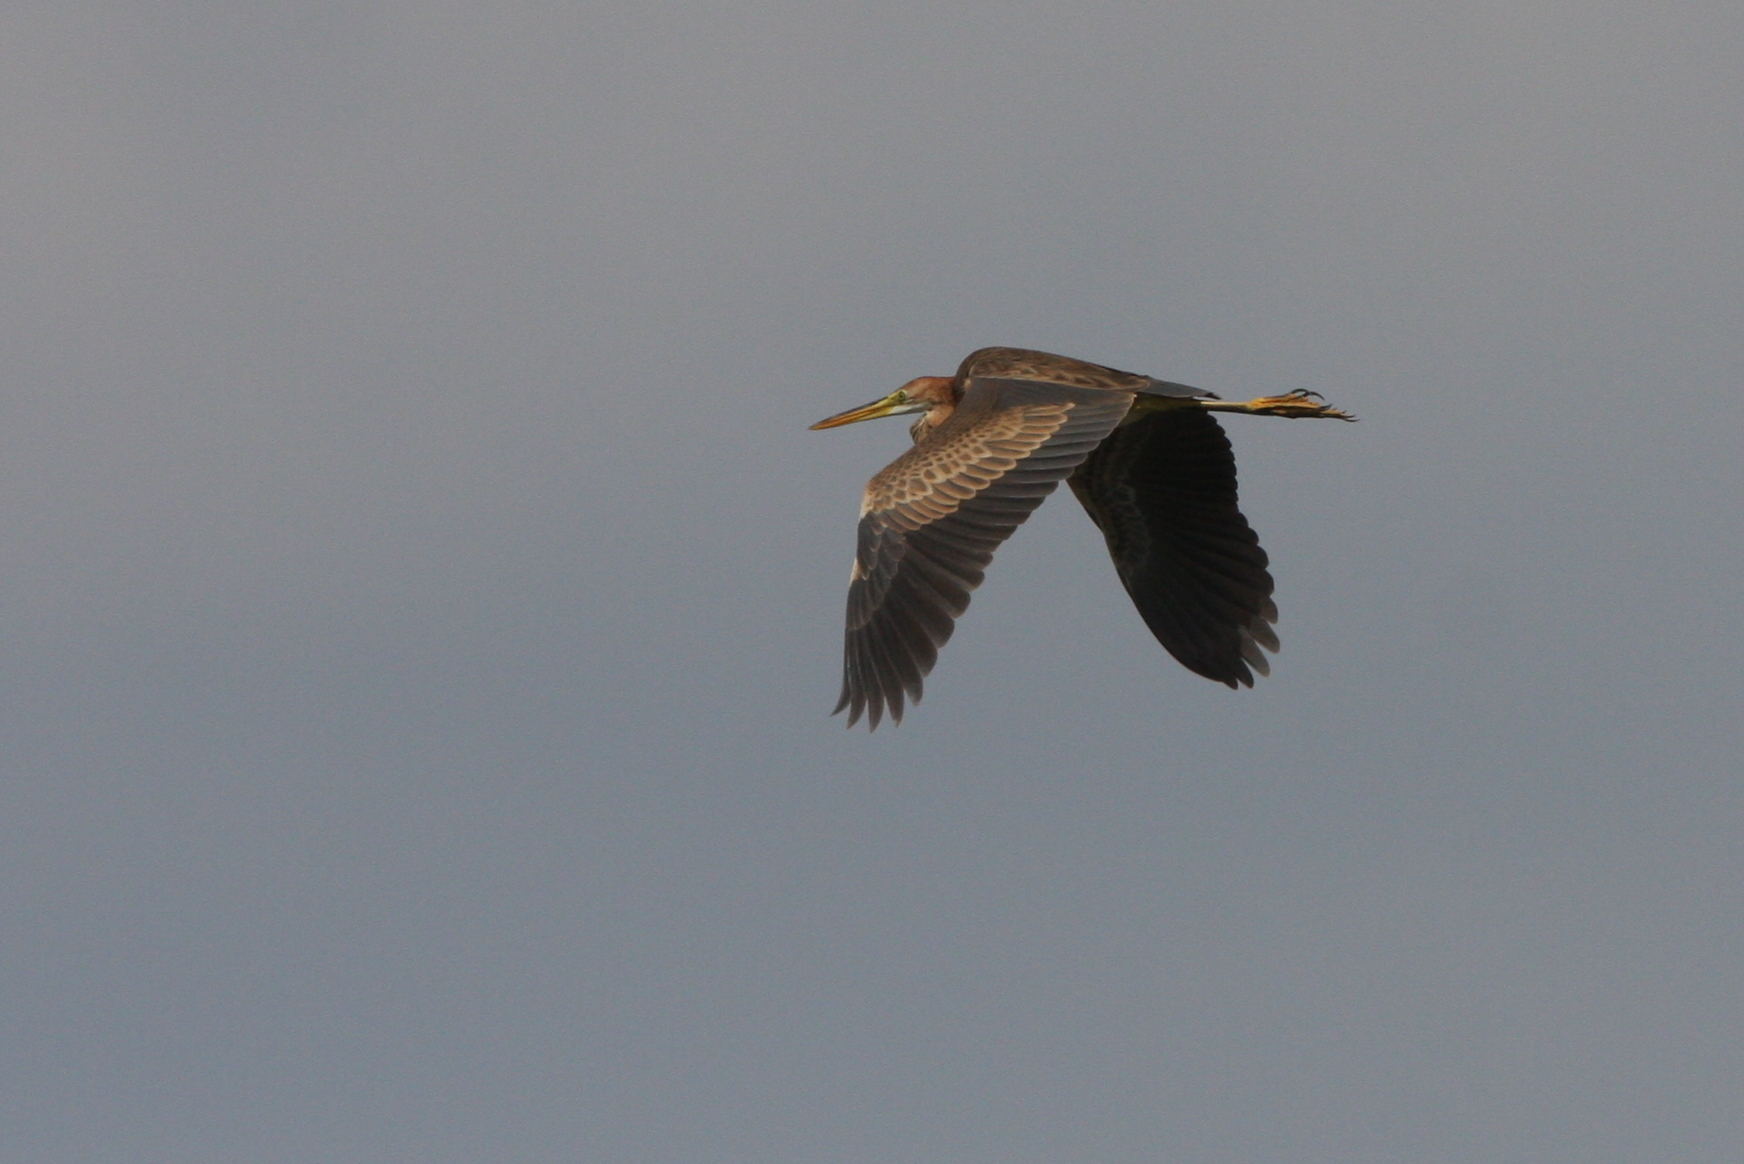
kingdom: Animalia
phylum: Chordata
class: Aves
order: Pelecaniformes
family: Ardeidae
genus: Ardea
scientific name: Ardea purpurea
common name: Purple heron
